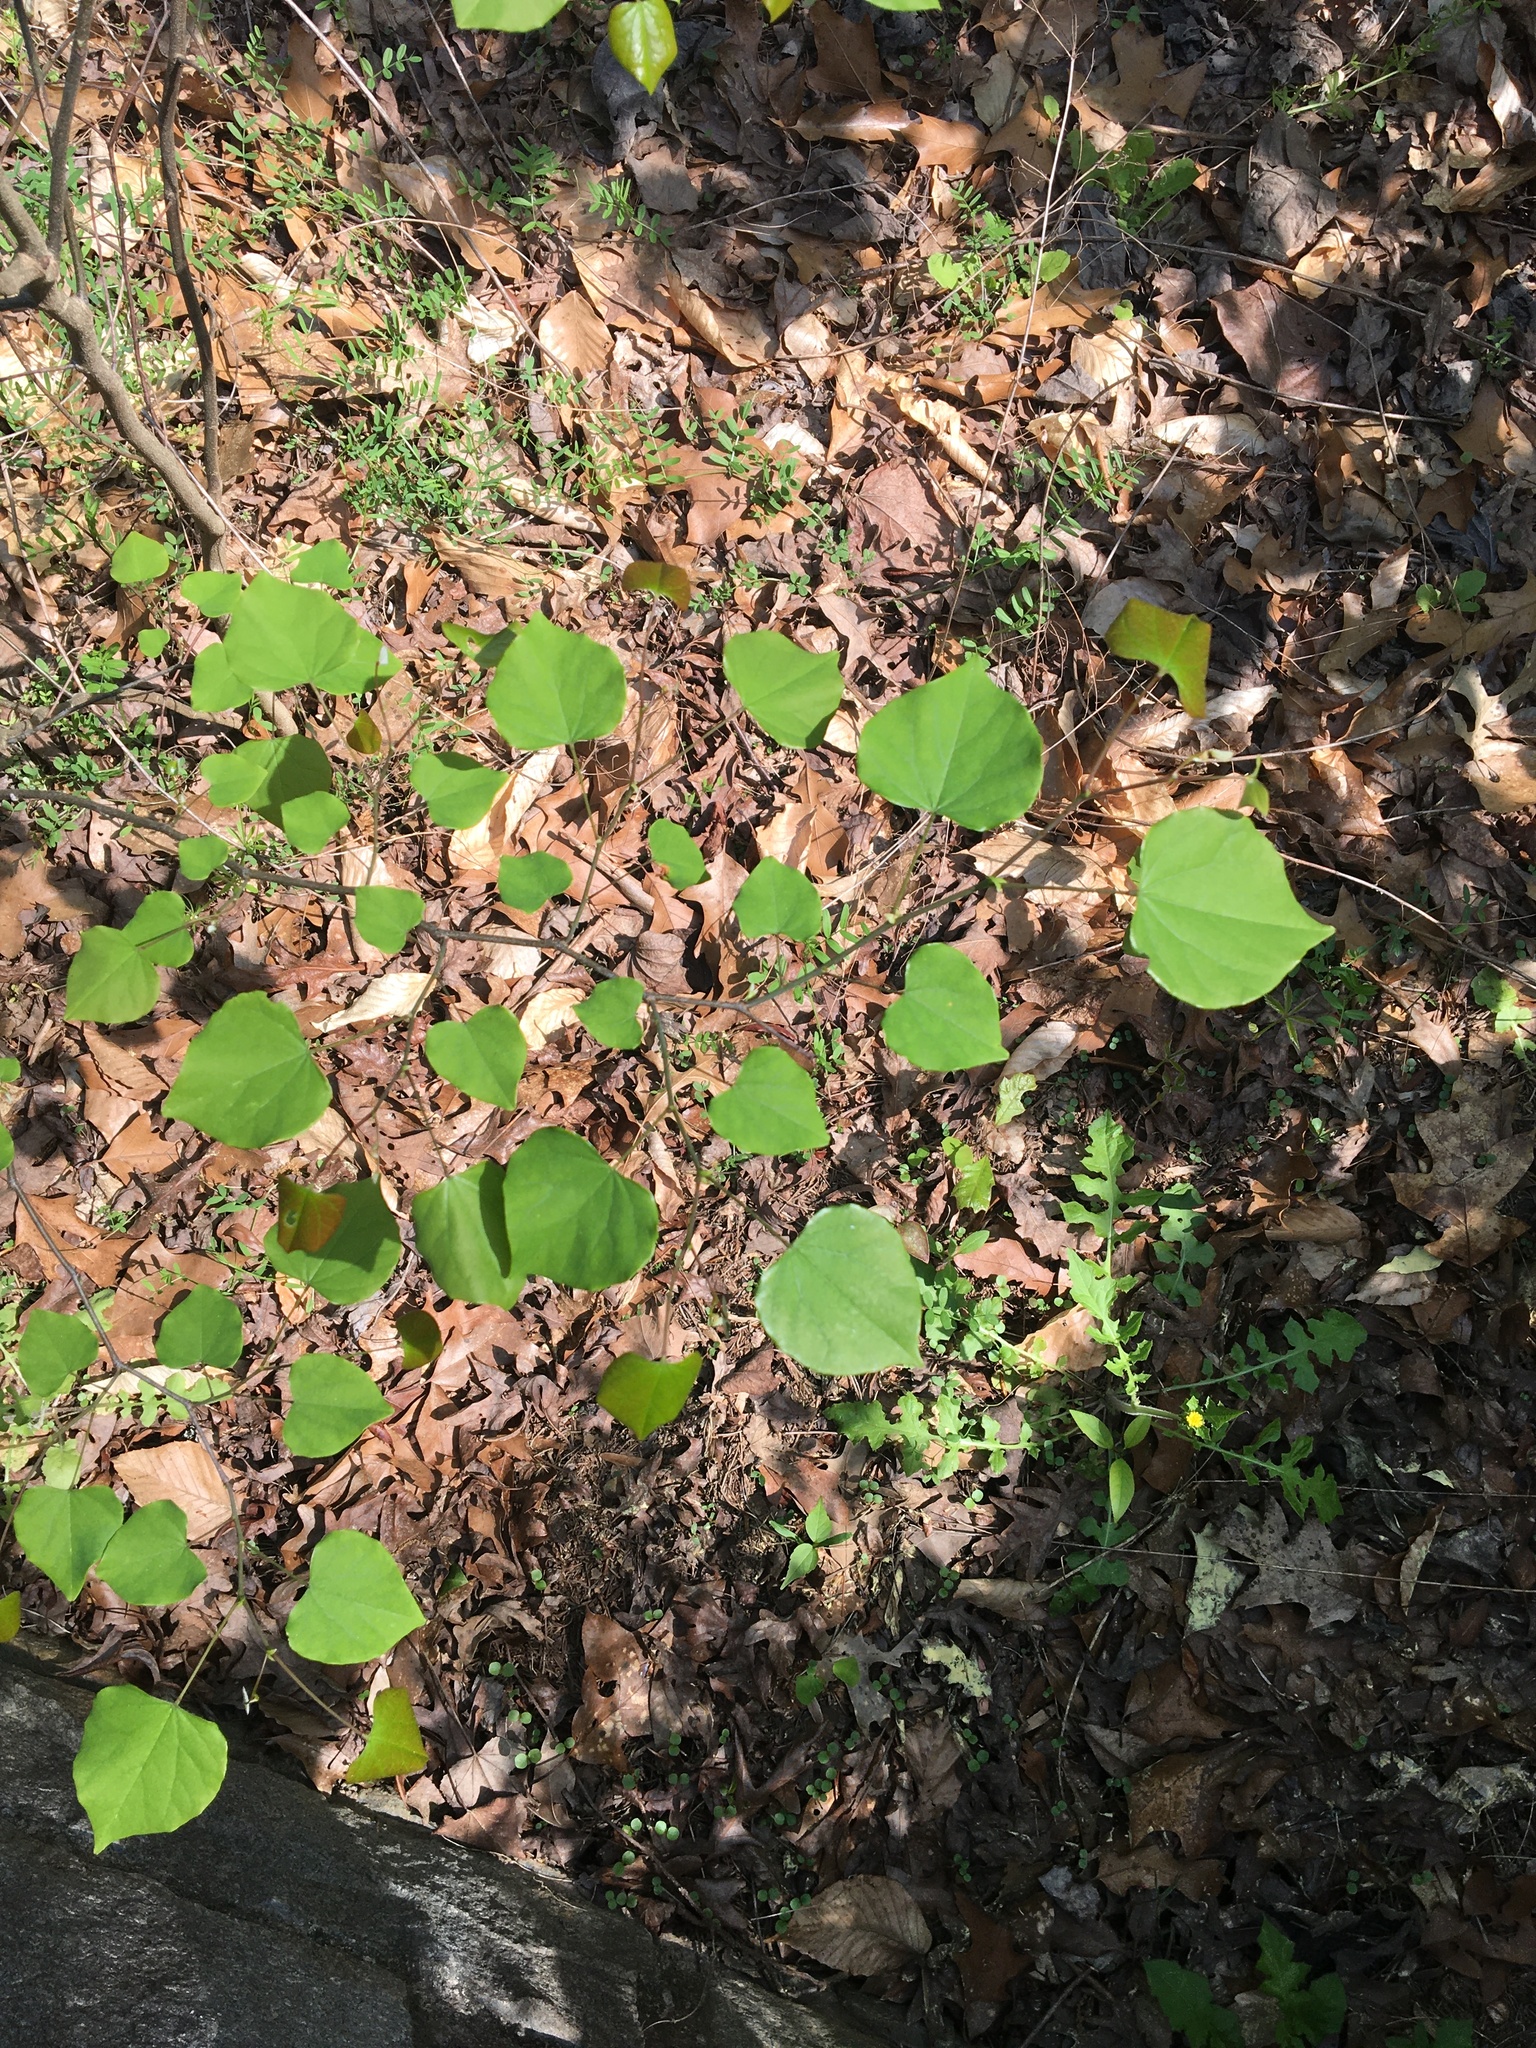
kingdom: Plantae
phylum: Tracheophyta
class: Magnoliopsida
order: Fabales
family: Fabaceae
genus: Cercis
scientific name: Cercis canadensis
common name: Eastern redbud
